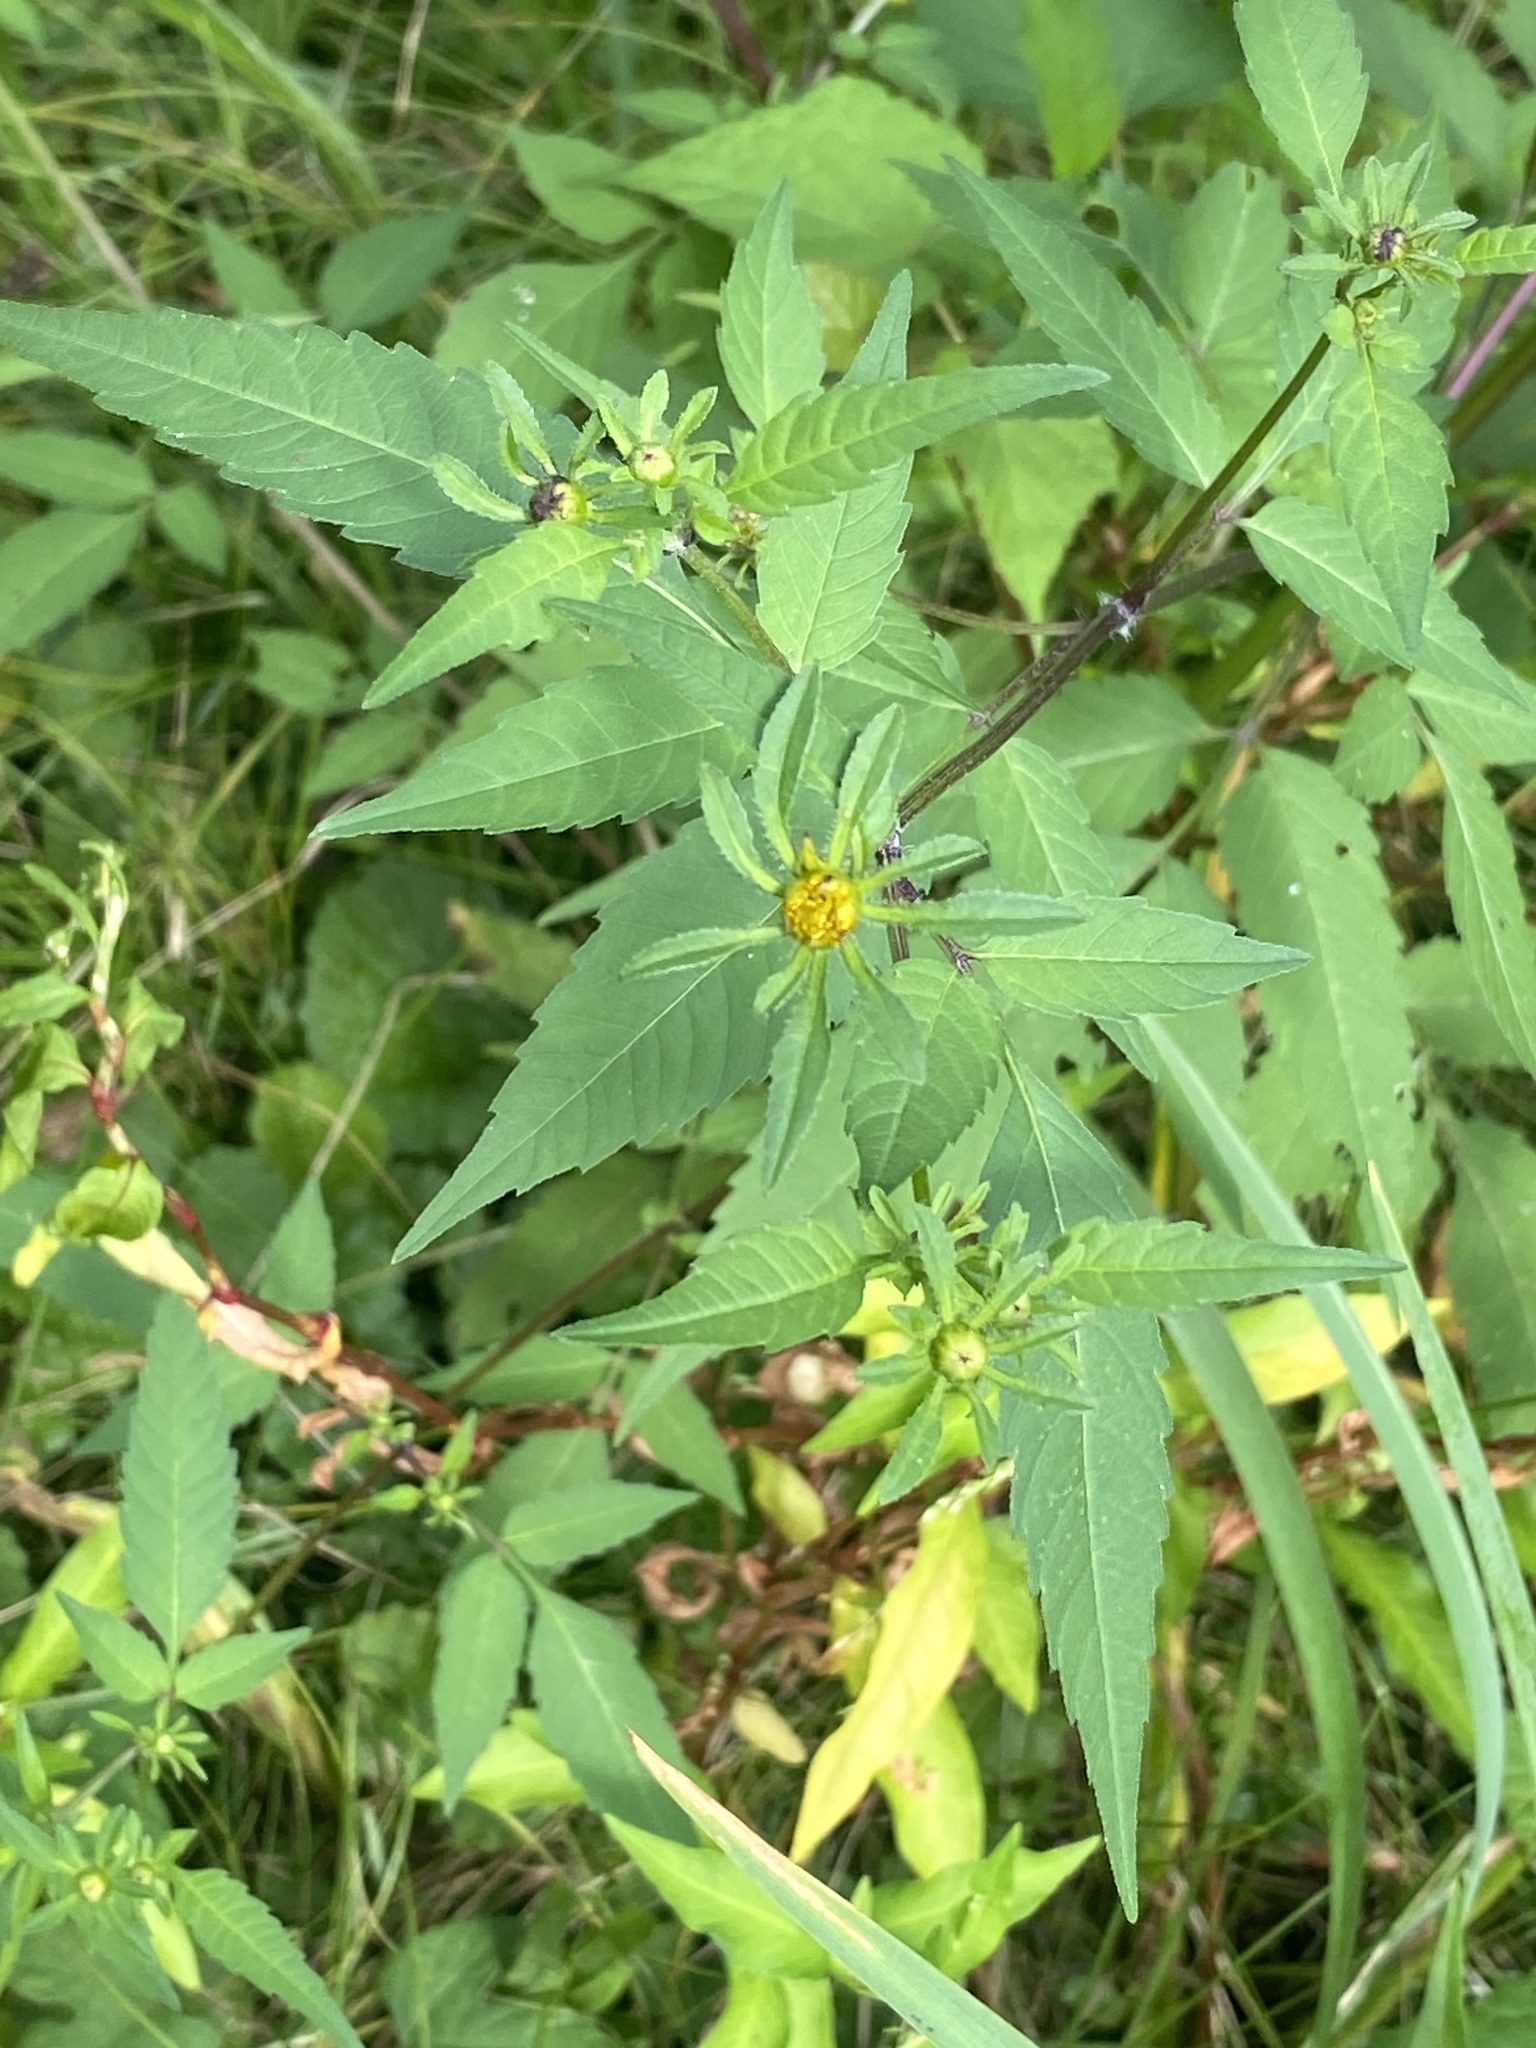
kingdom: Plantae
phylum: Tracheophyta
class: Magnoliopsida
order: Asterales
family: Asteraceae
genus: Bidens
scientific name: Bidens frondosa
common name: Beggarticks
